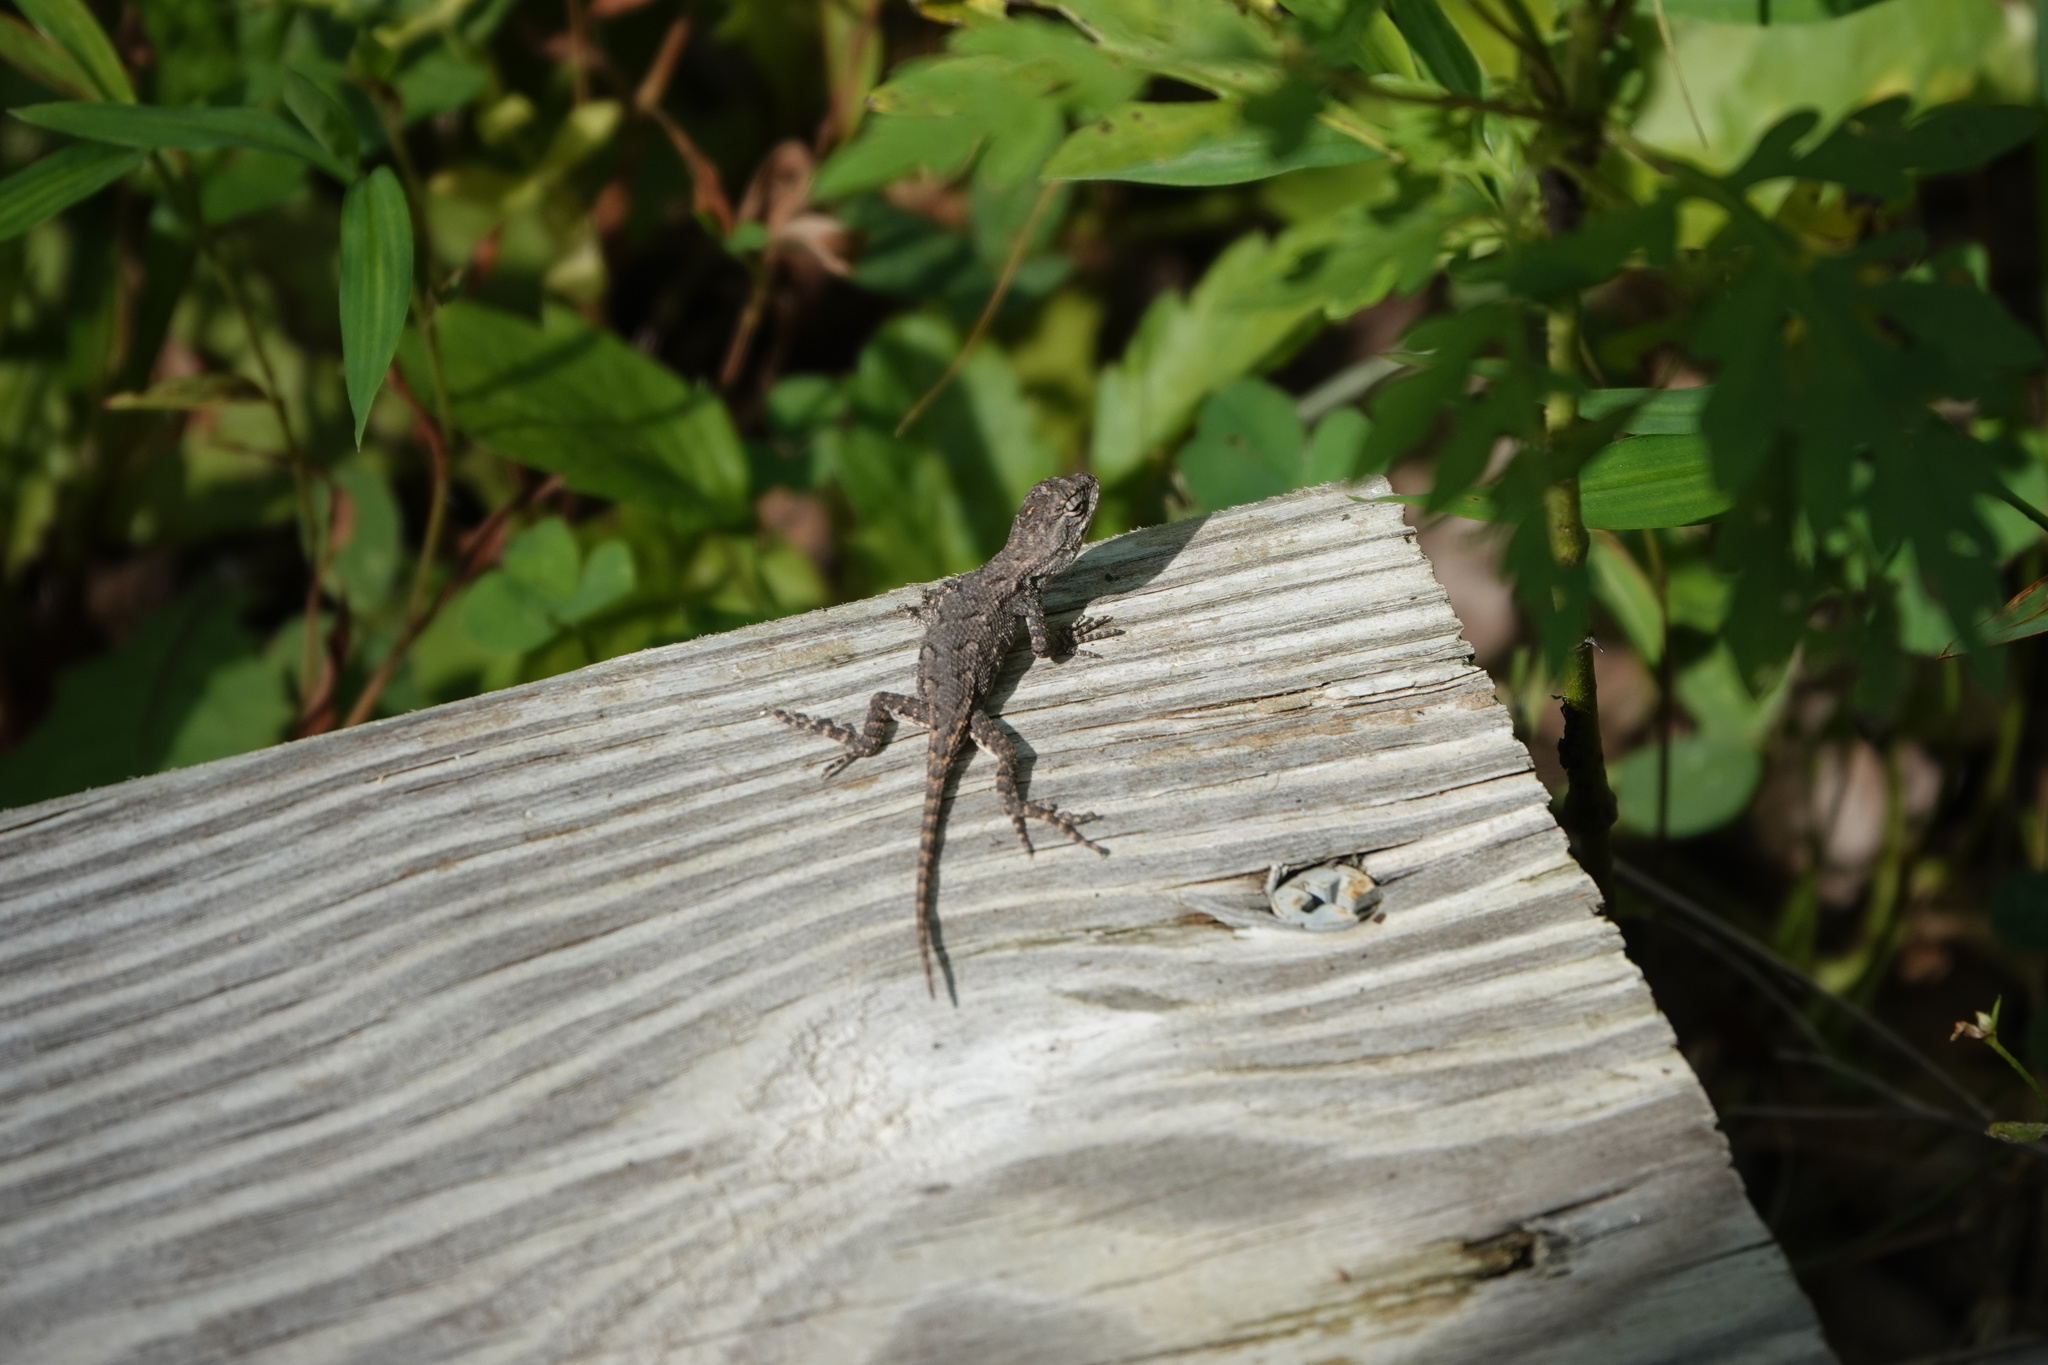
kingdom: Animalia
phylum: Chordata
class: Squamata
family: Phrynosomatidae
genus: Sceloporus
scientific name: Sceloporus undulatus
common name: Eastern fence lizard
